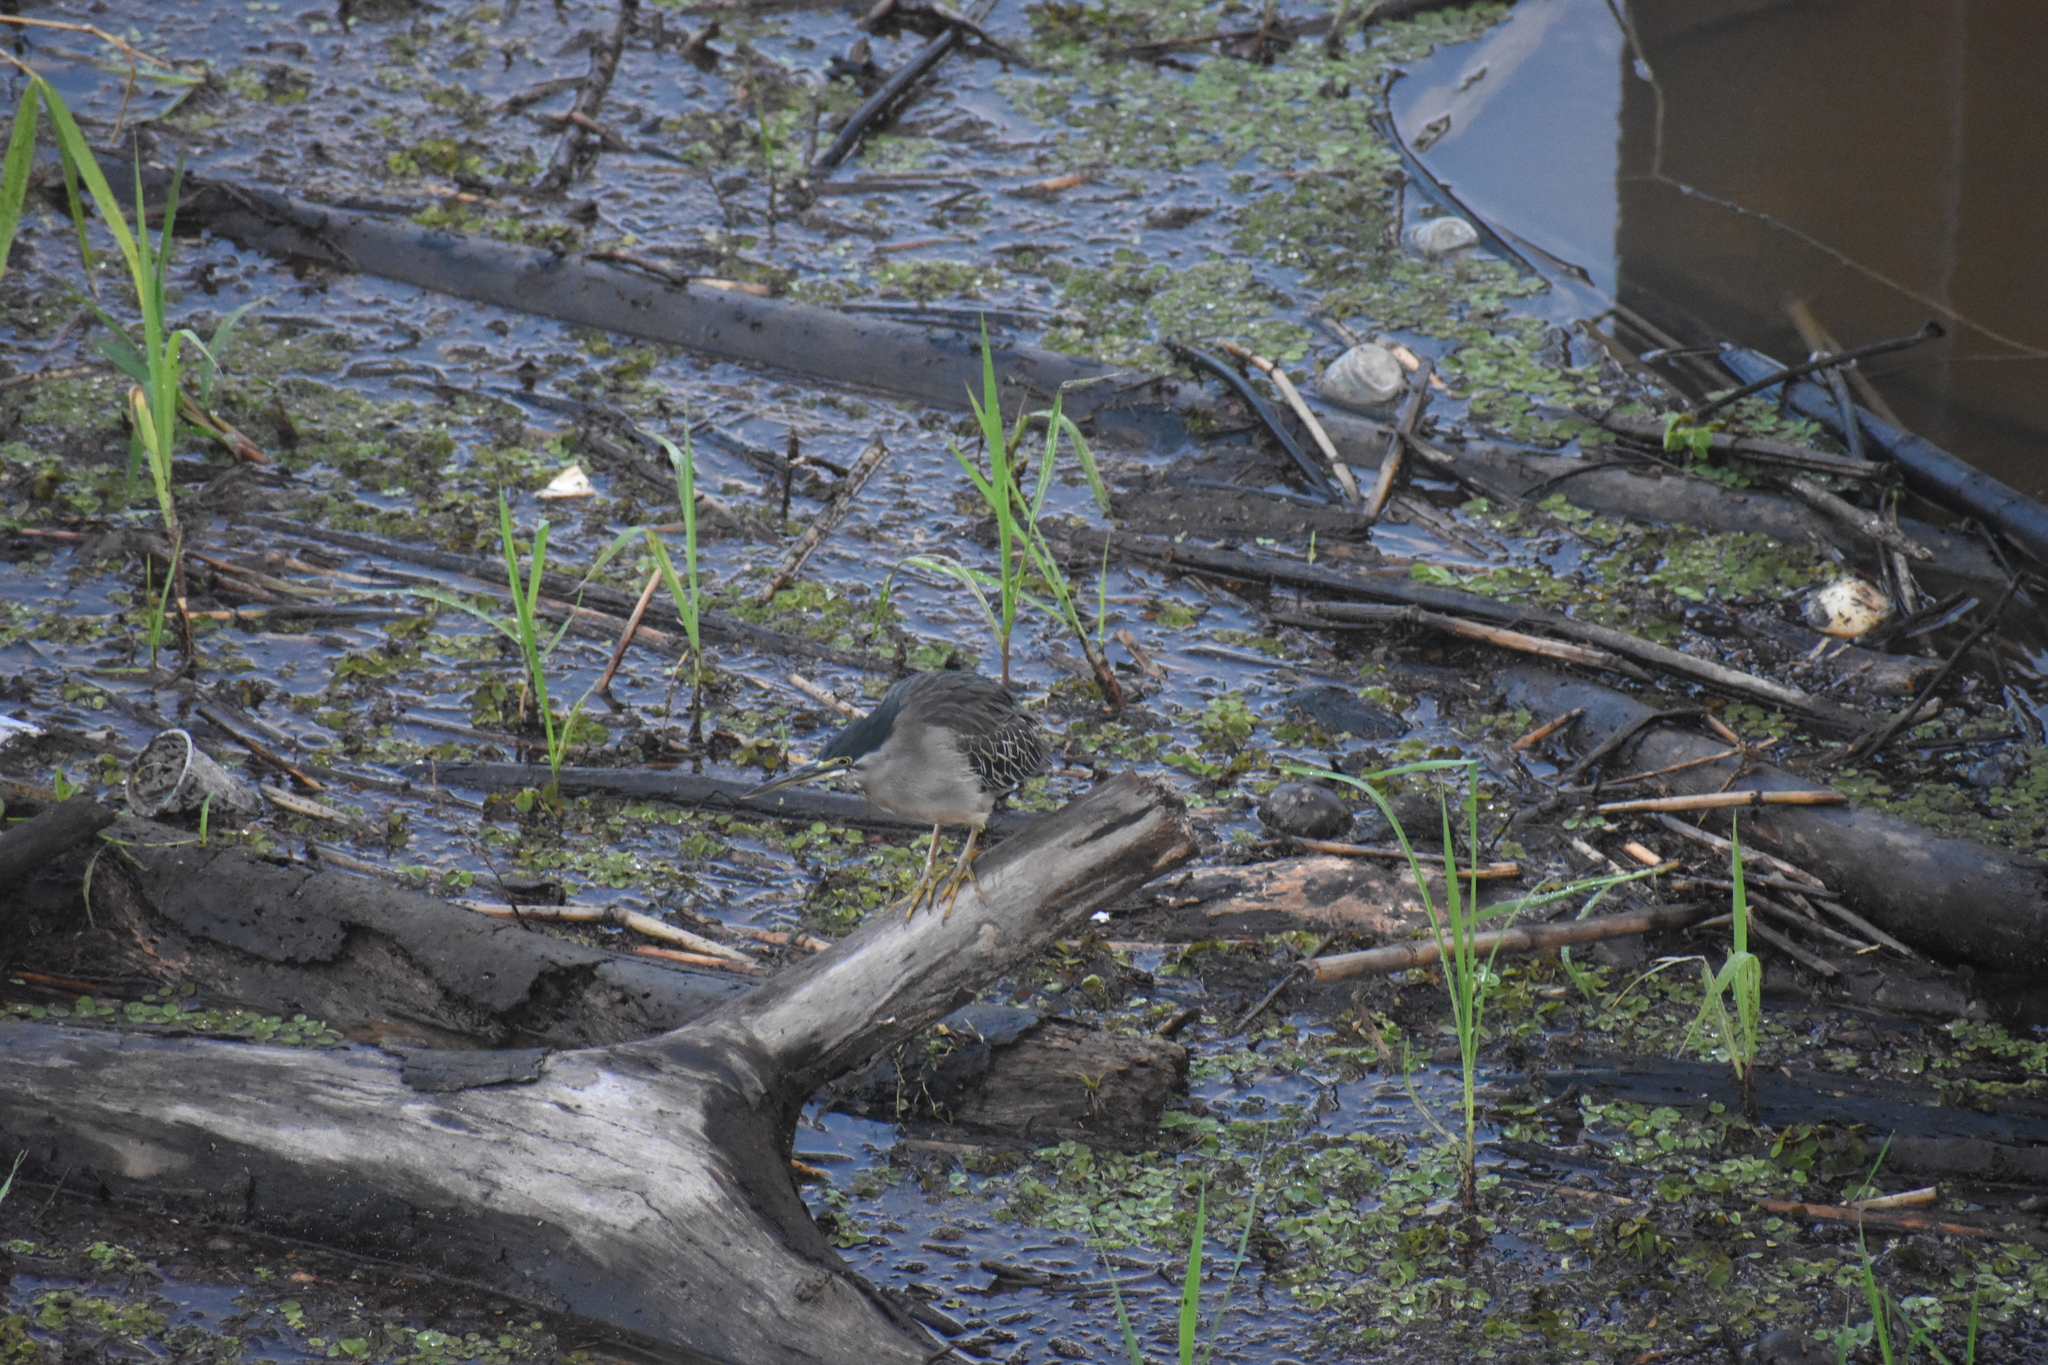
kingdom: Animalia
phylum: Chordata
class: Aves
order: Pelecaniformes
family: Ardeidae
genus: Butorides
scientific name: Butorides striata
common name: Striated heron
